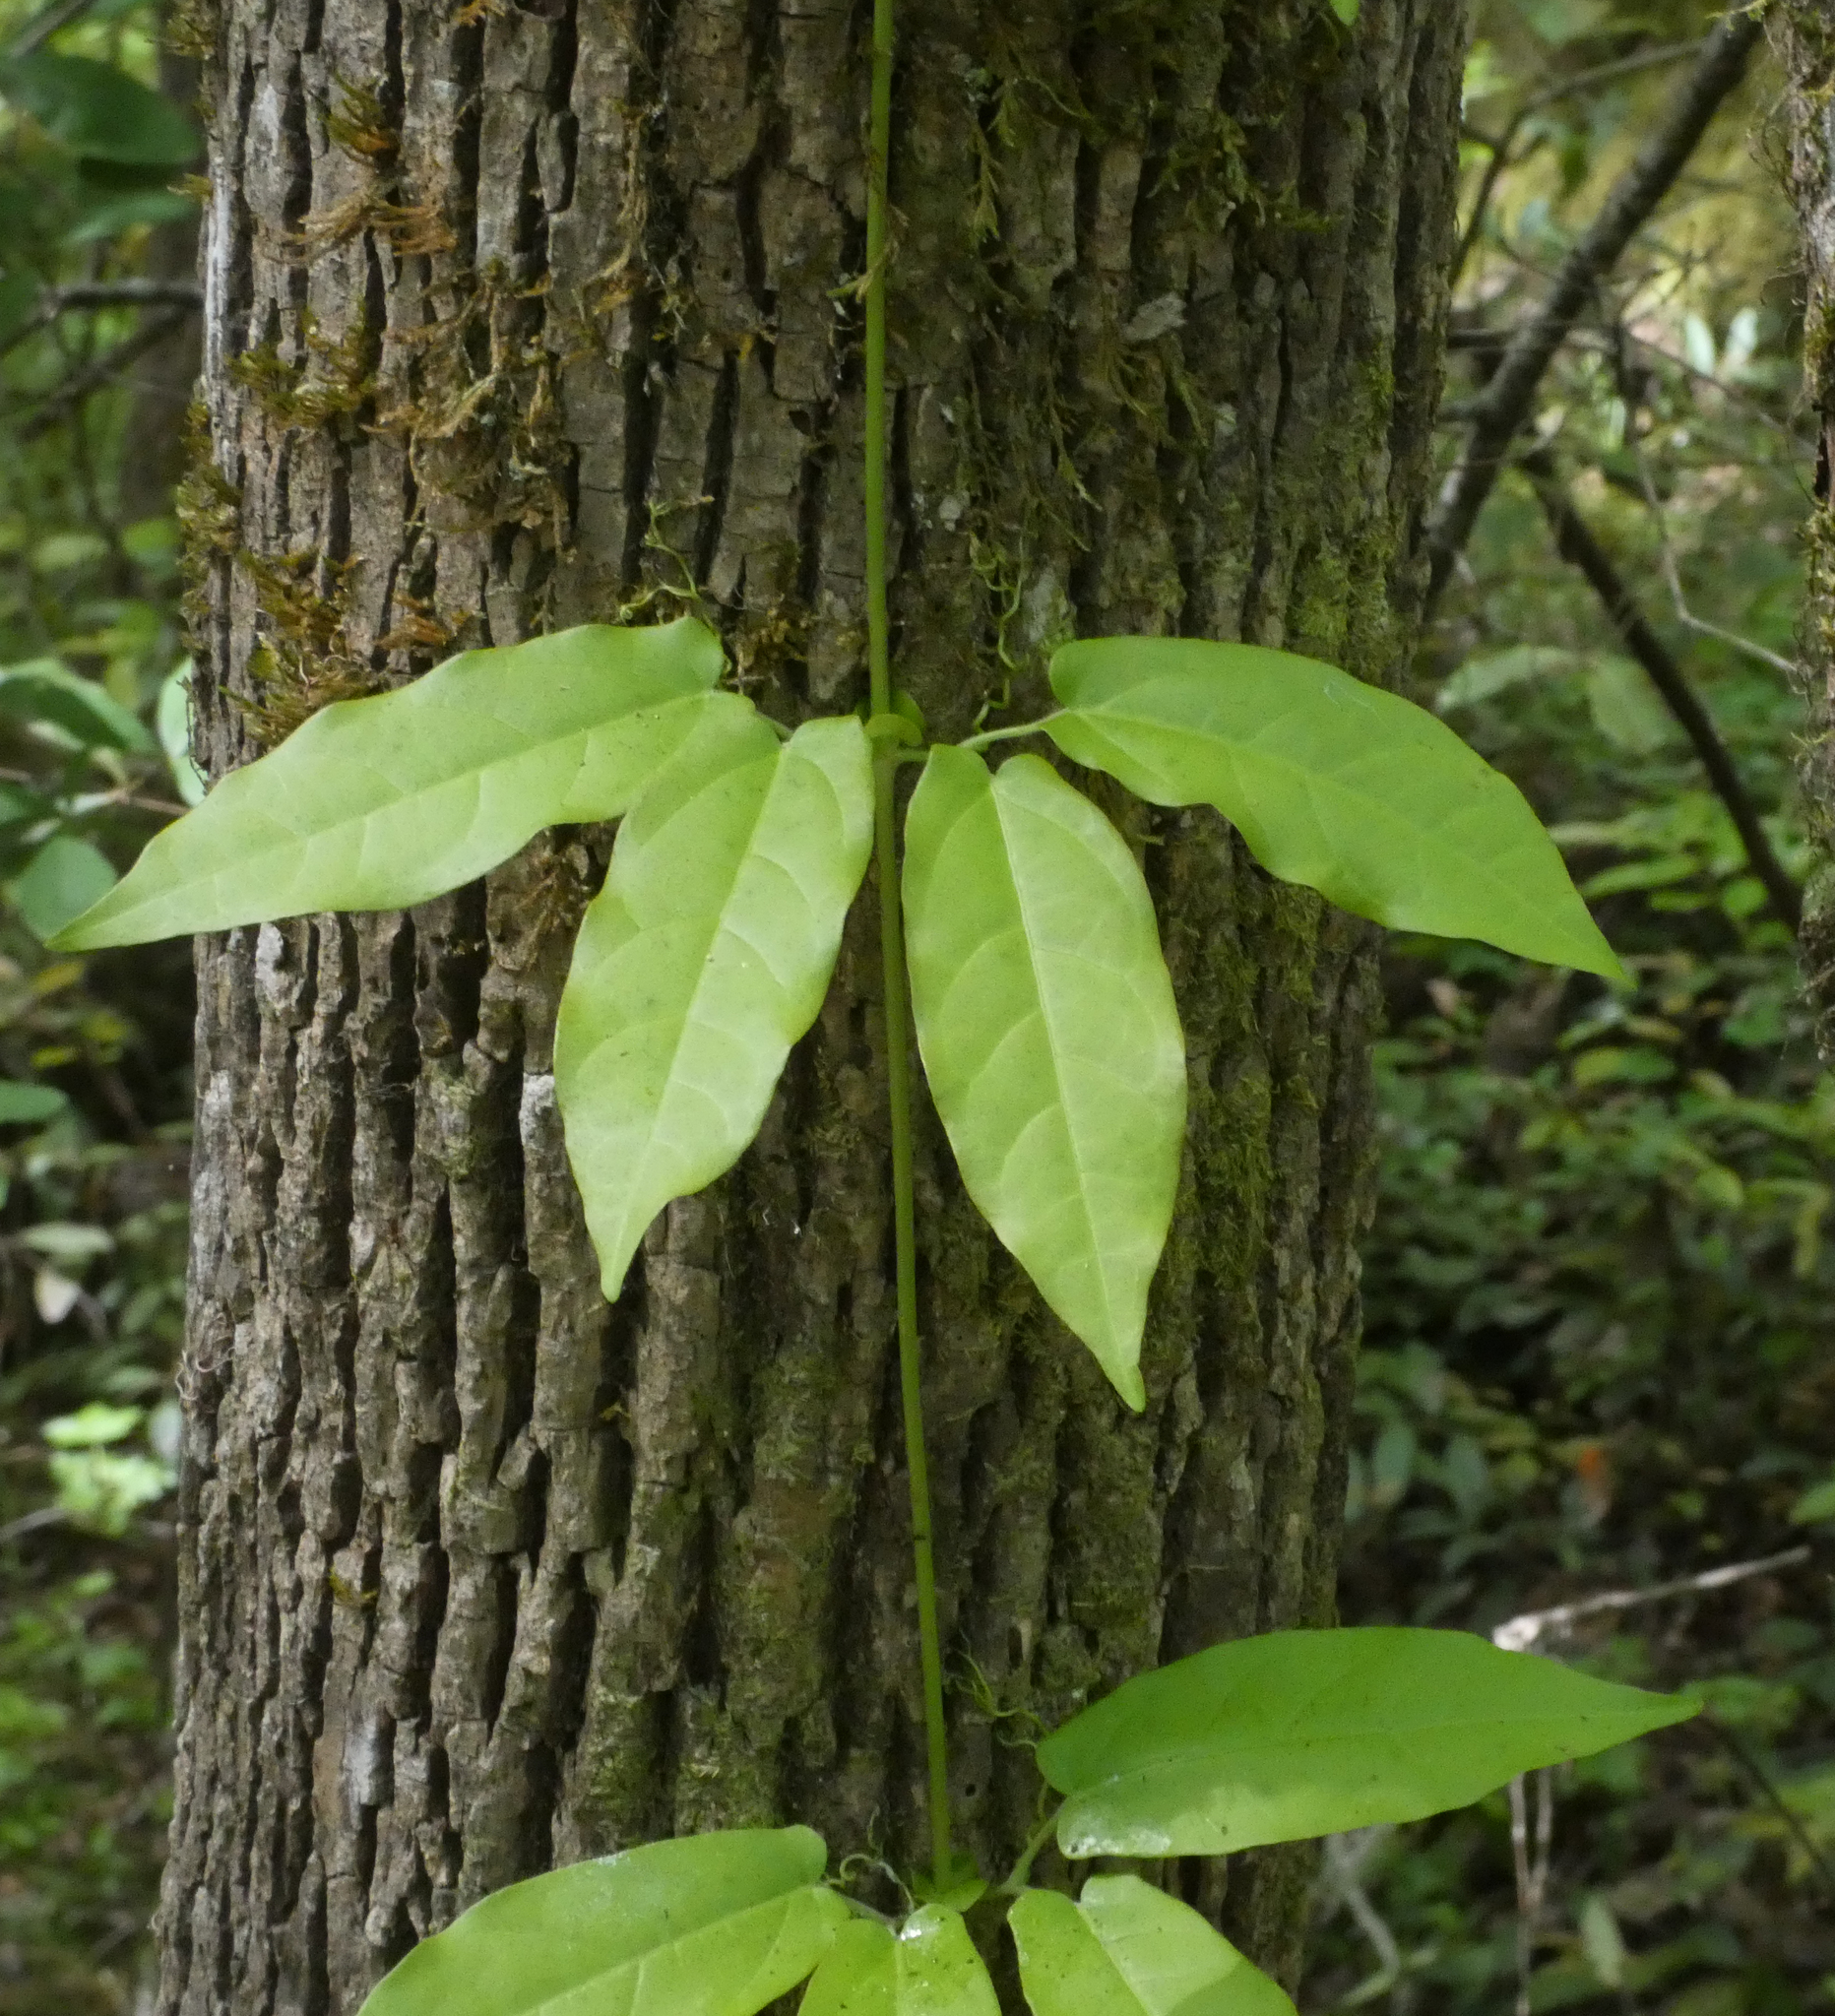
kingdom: Plantae
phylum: Tracheophyta
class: Magnoliopsida
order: Lamiales
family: Bignoniaceae
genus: Bignonia
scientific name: Bignonia capreolata
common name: Crossvine
